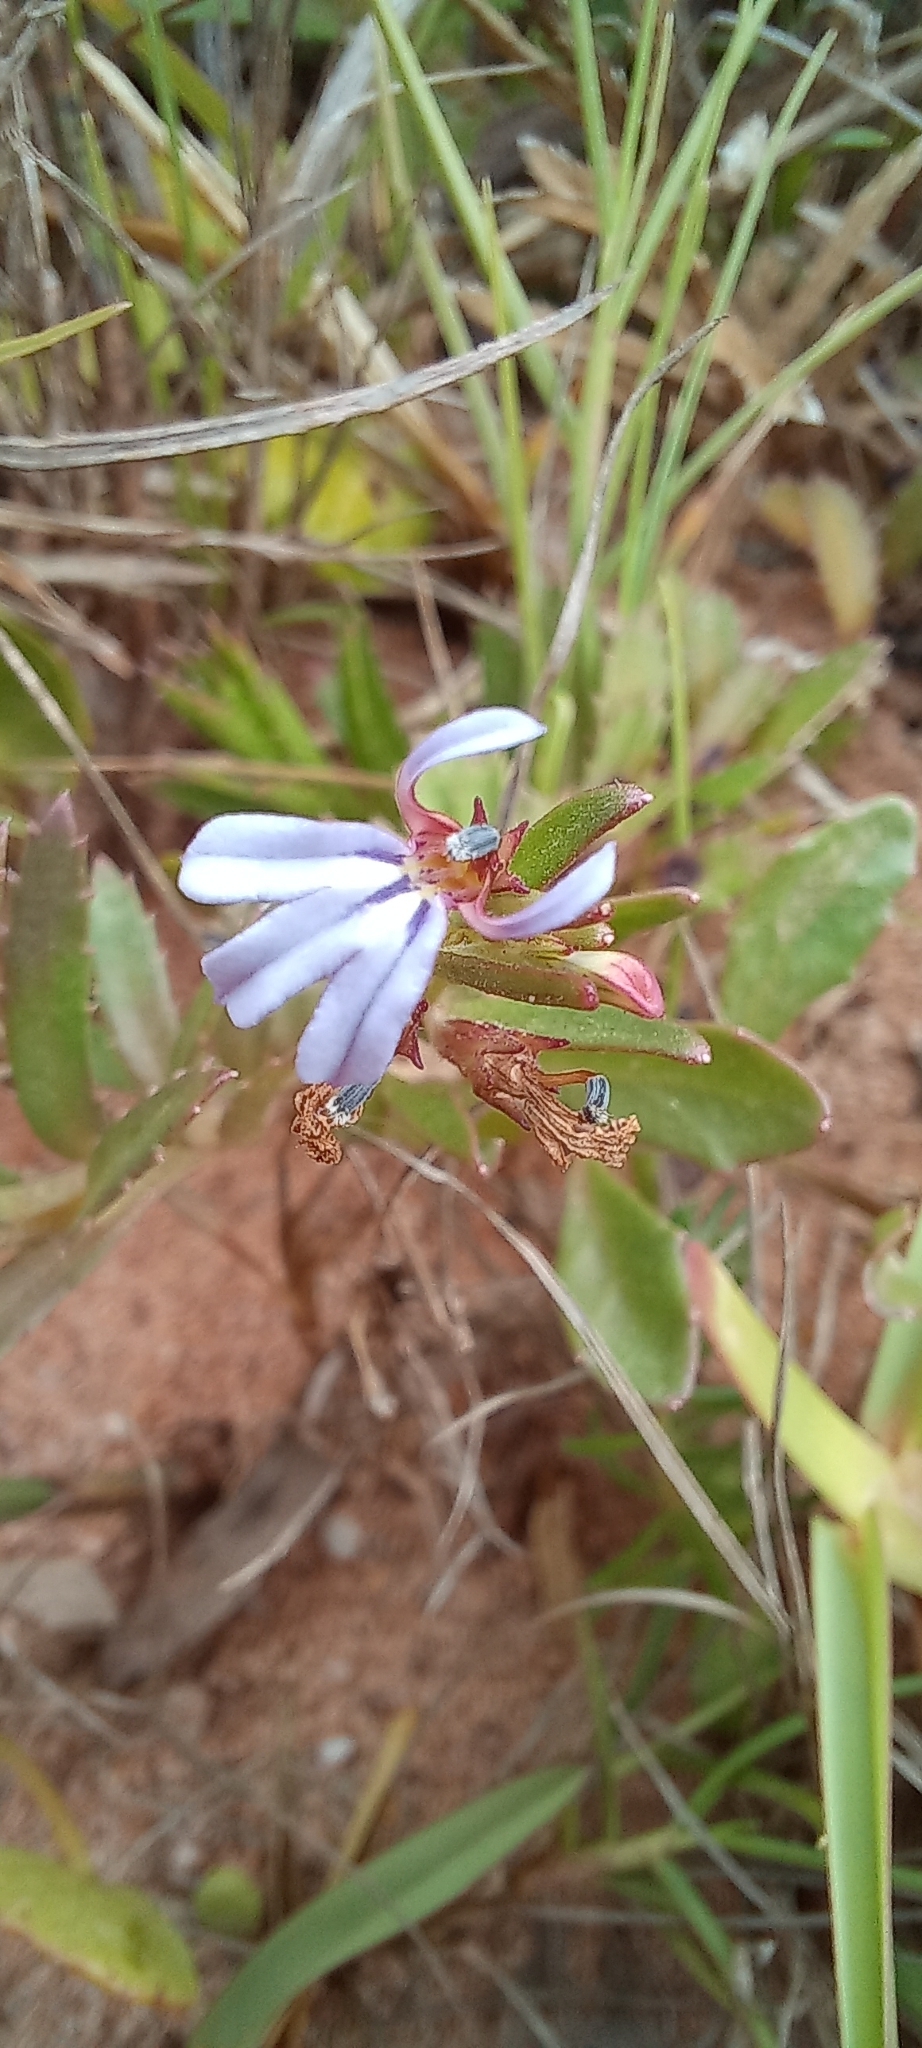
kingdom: Plantae
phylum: Tracheophyta
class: Magnoliopsida
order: Asterales
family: Campanulaceae
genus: Lobelia
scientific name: Lobelia anceps
